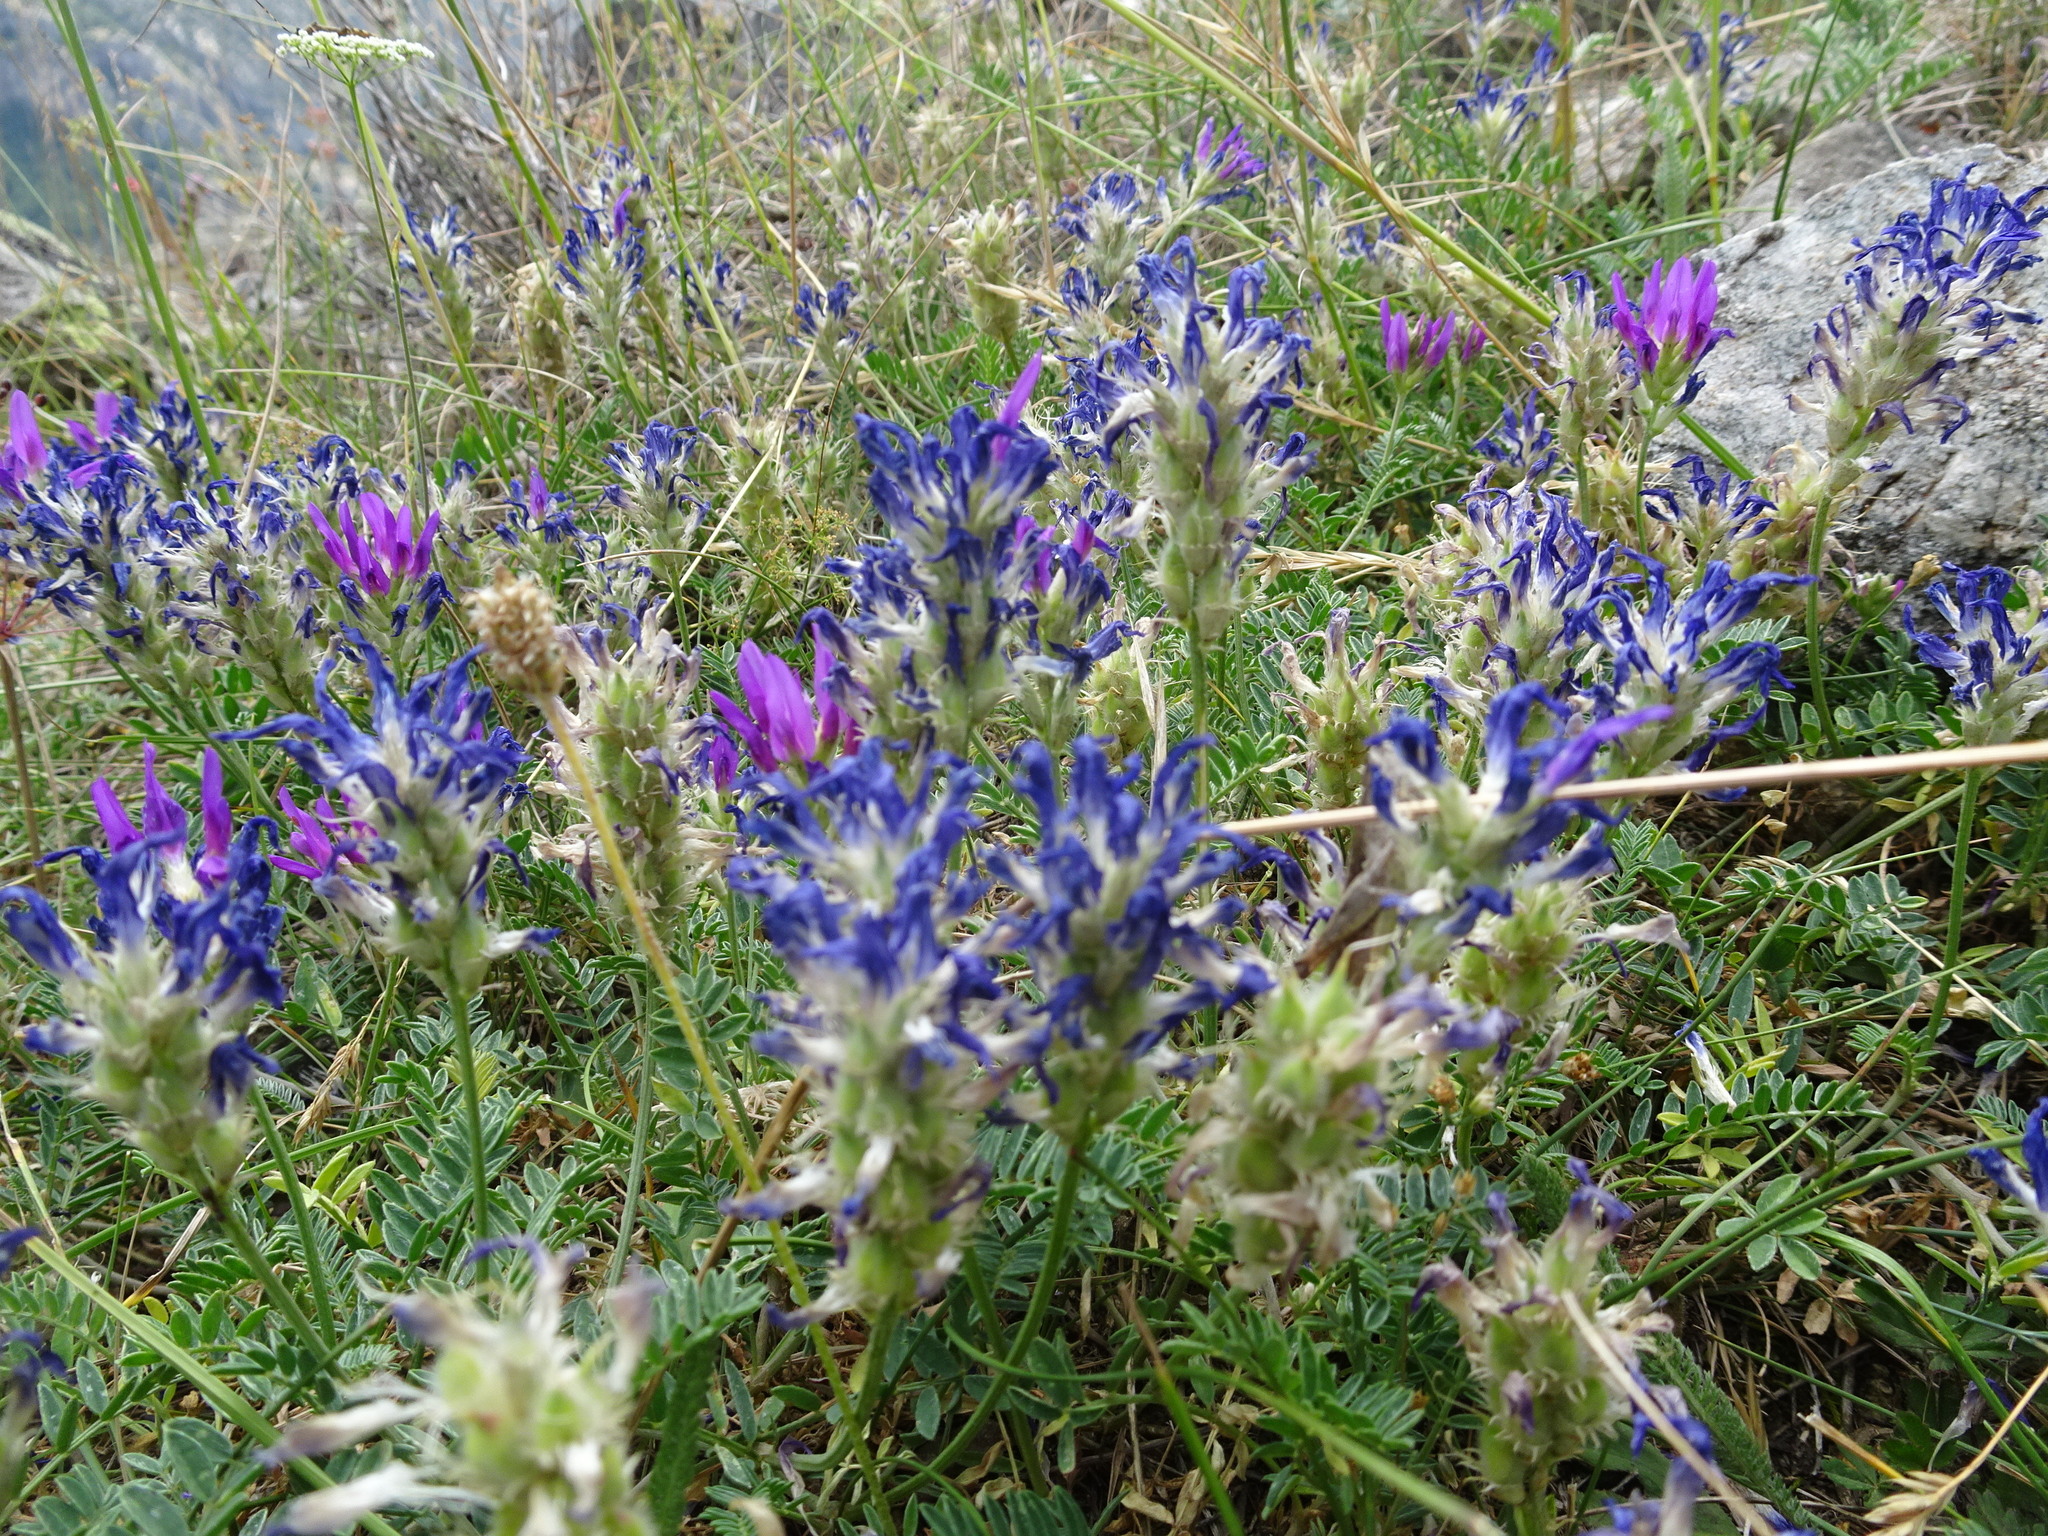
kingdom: Plantae
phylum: Tracheophyta
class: Magnoliopsida
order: Fabales
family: Fabaceae
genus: Astragalus
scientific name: Astragalus onobrychis
